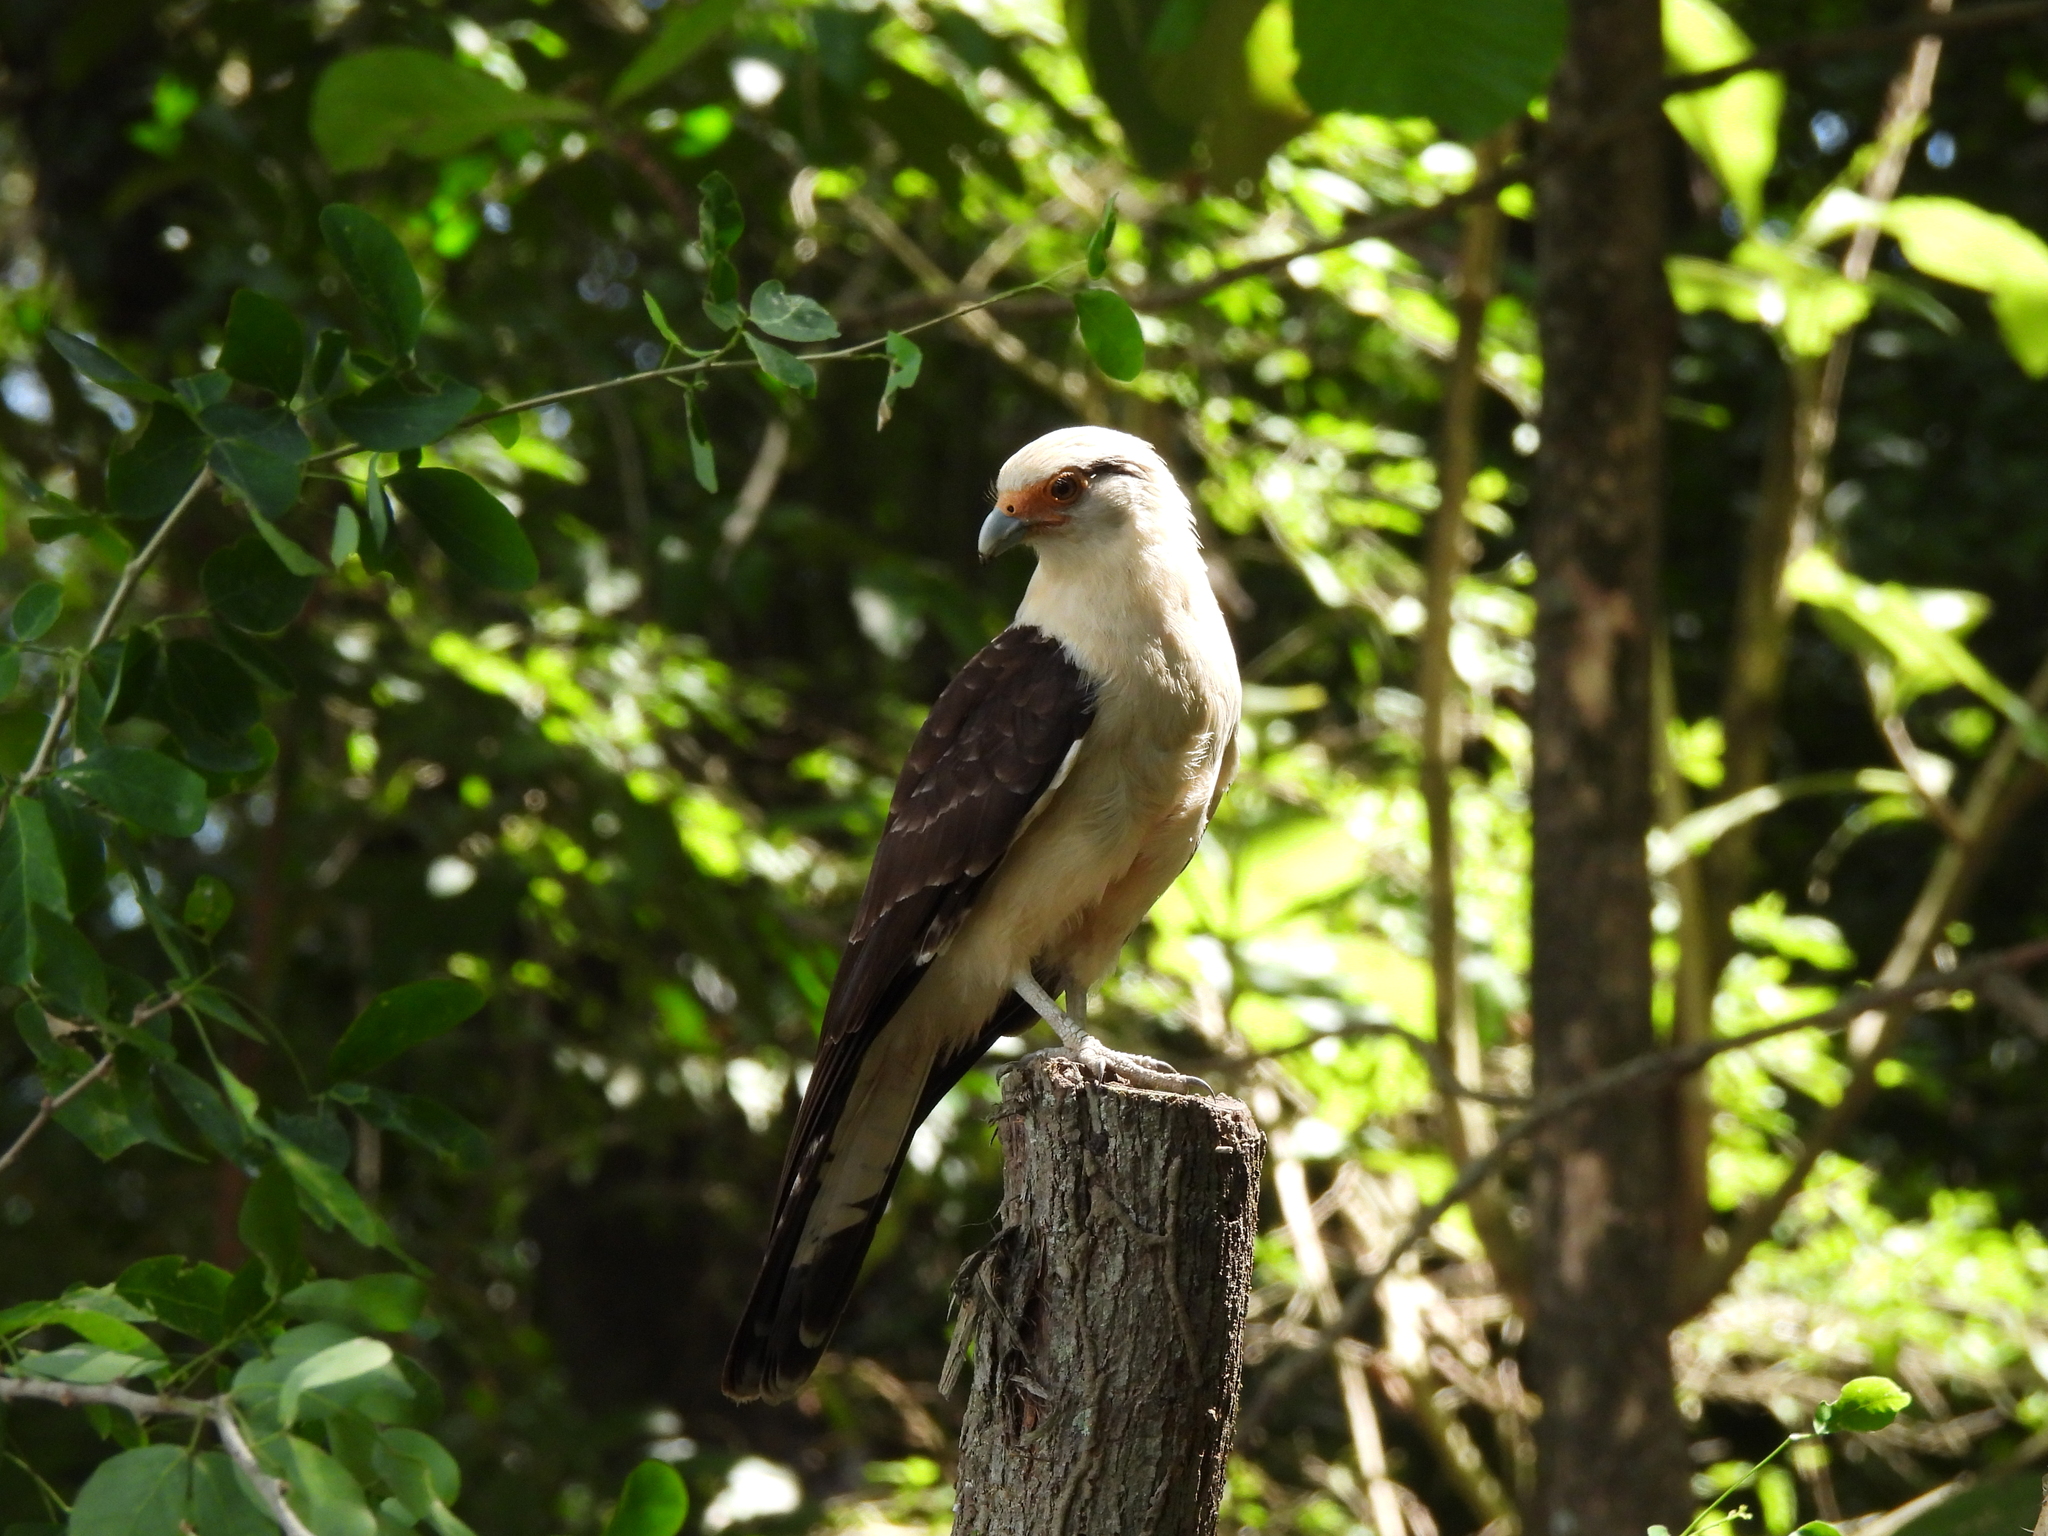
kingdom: Animalia
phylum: Chordata
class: Aves
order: Falconiformes
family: Falconidae
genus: Daptrius
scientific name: Daptrius
